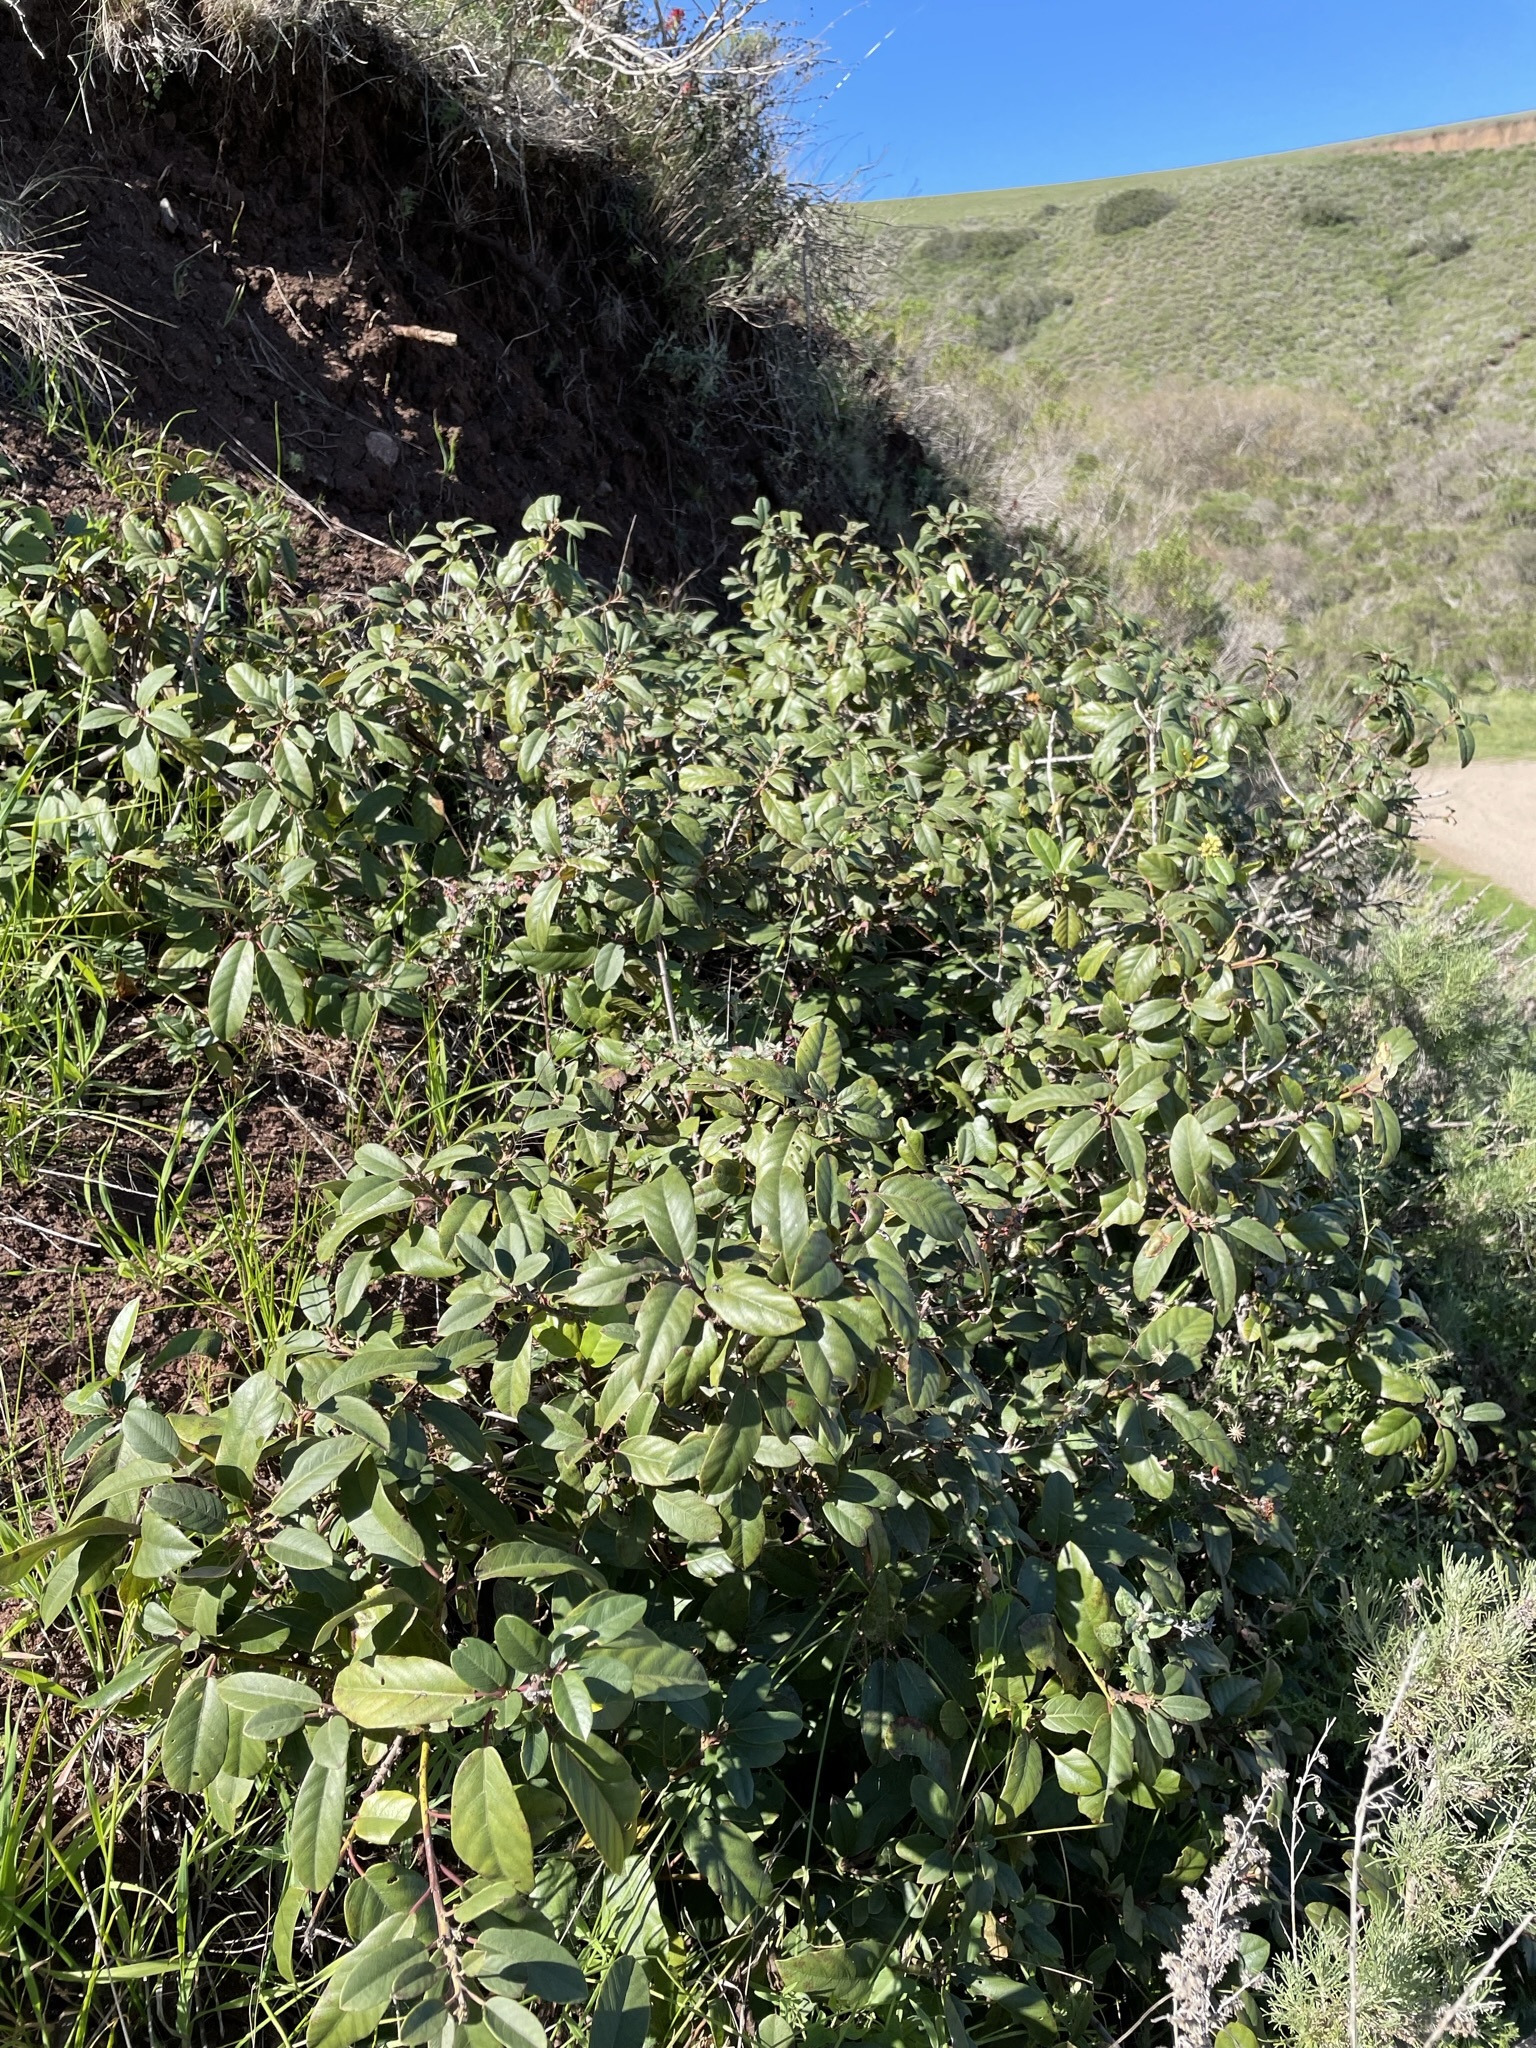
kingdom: Plantae
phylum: Tracheophyta
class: Magnoliopsida
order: Rosales
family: Rhamnaceae
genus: Frangula
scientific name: Frangula californica
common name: California buckthorn
